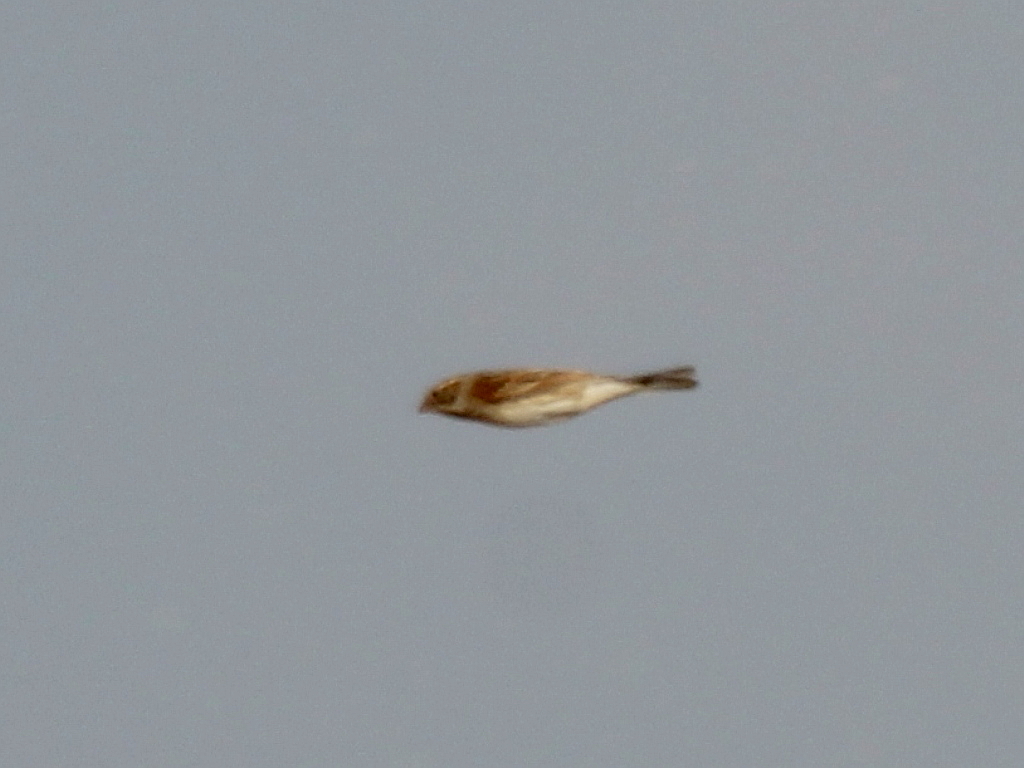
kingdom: Animalia
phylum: Chordata
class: Aves
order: Passeriformes
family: Emberizidae
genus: Emberiza
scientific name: Emberiza schoeniclus
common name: Reed bunting
